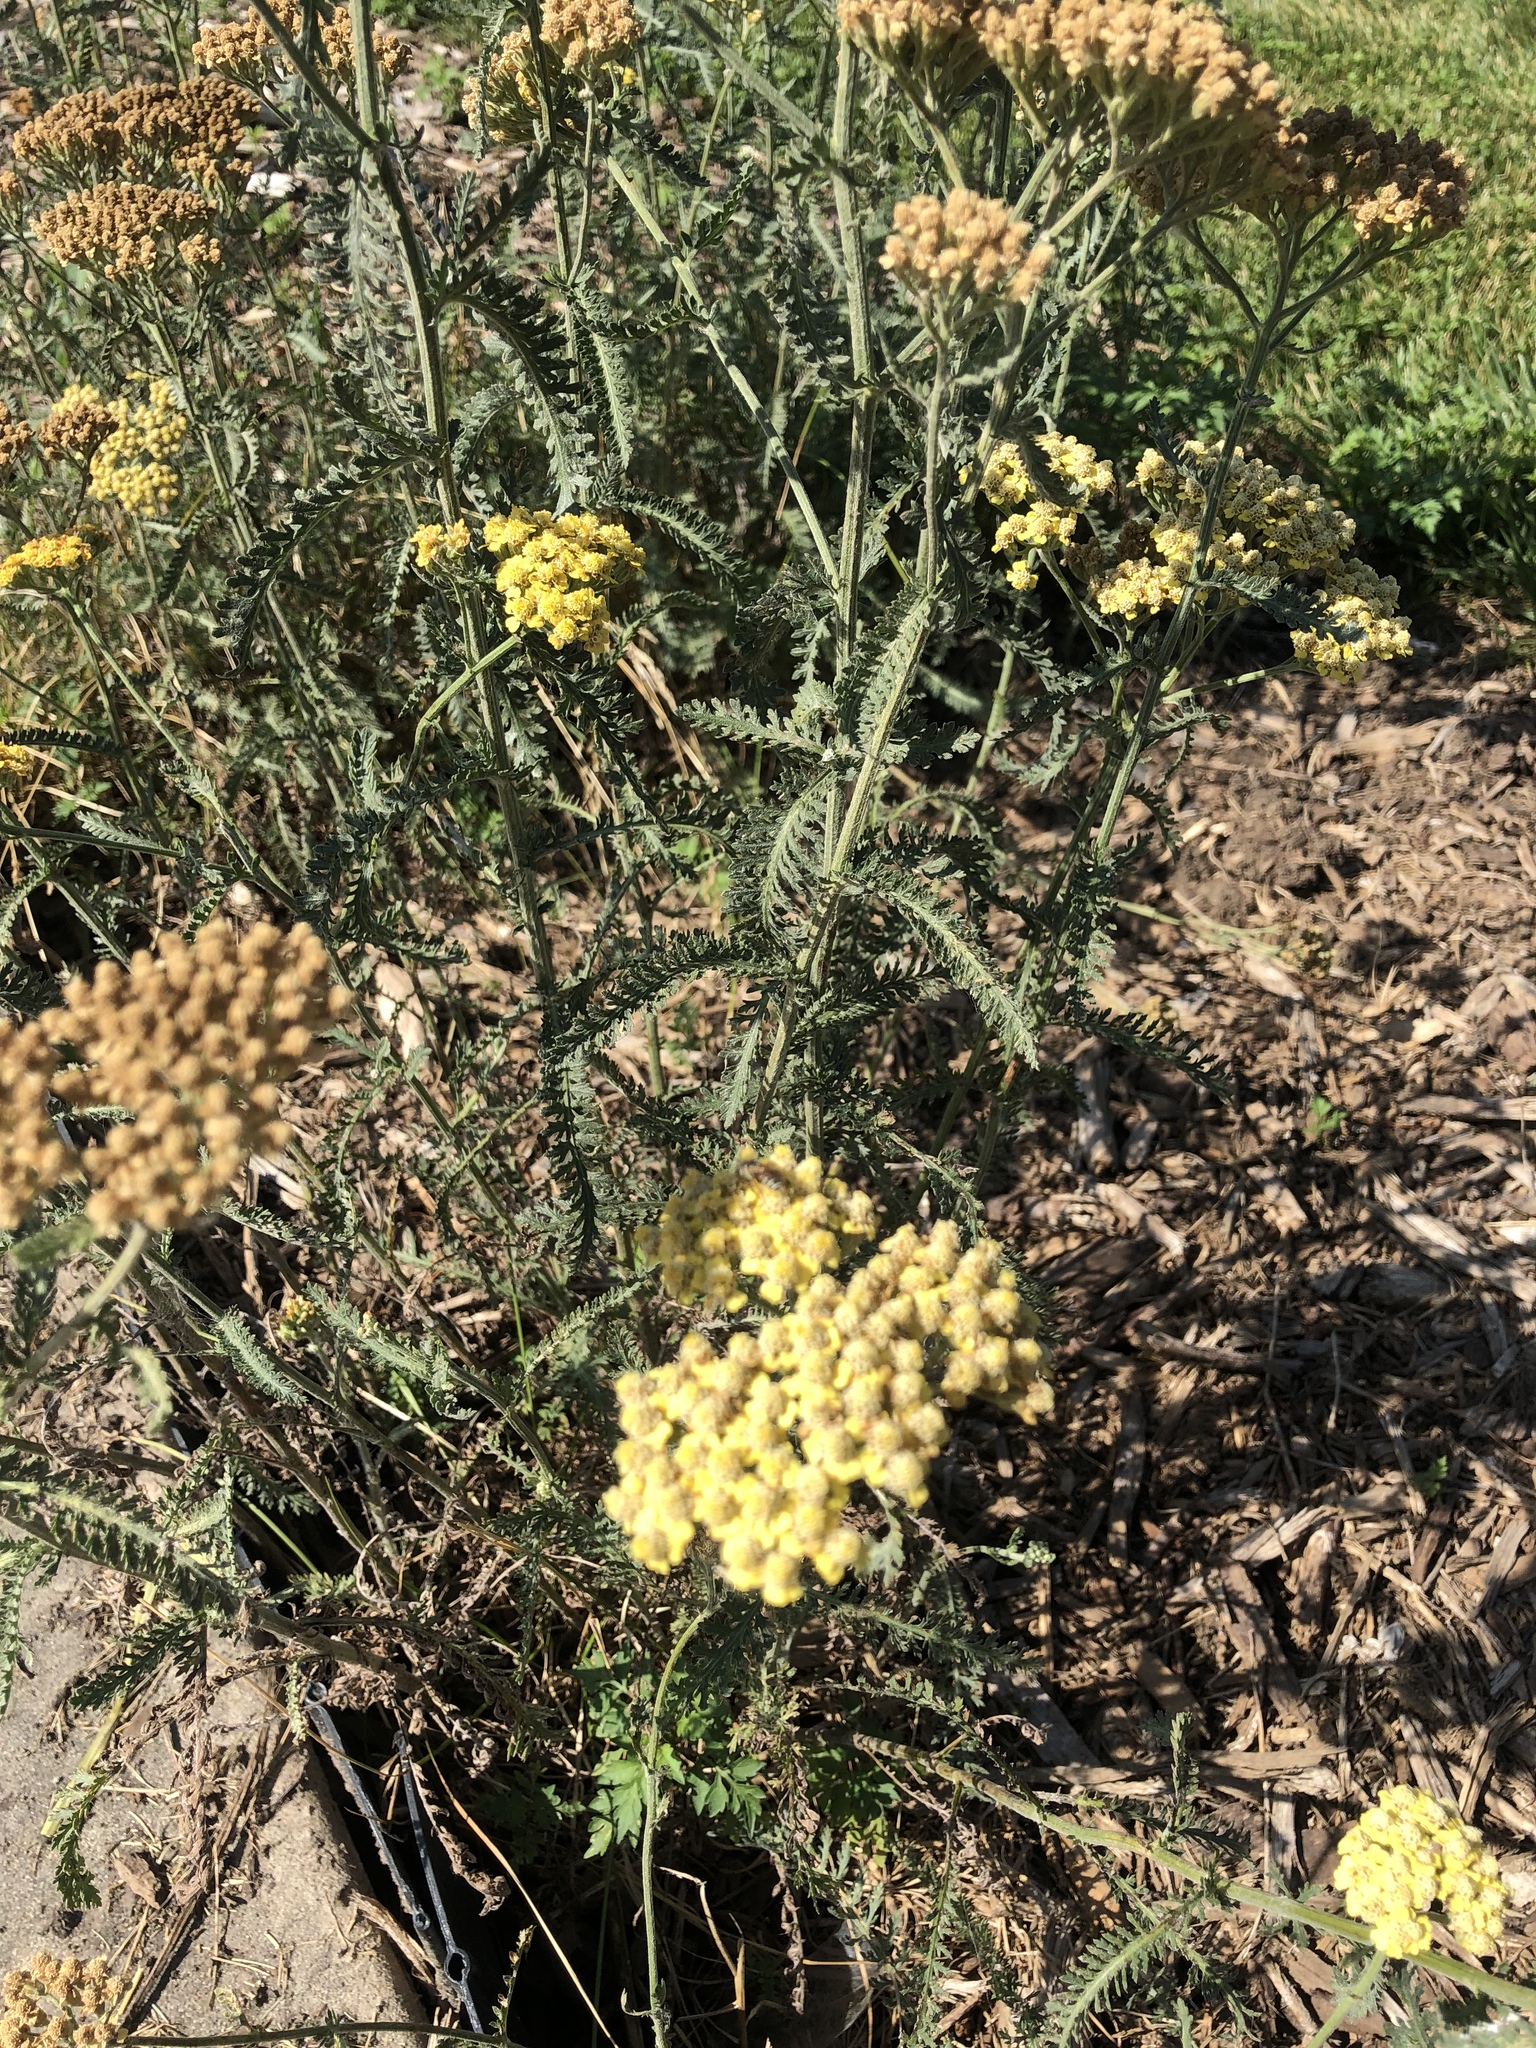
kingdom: Plantae
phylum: Tracheophyta
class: Magnoliopsida
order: Asterales
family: Asteraceae
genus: Achillea
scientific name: Achillea millefolium
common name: Yarrow
